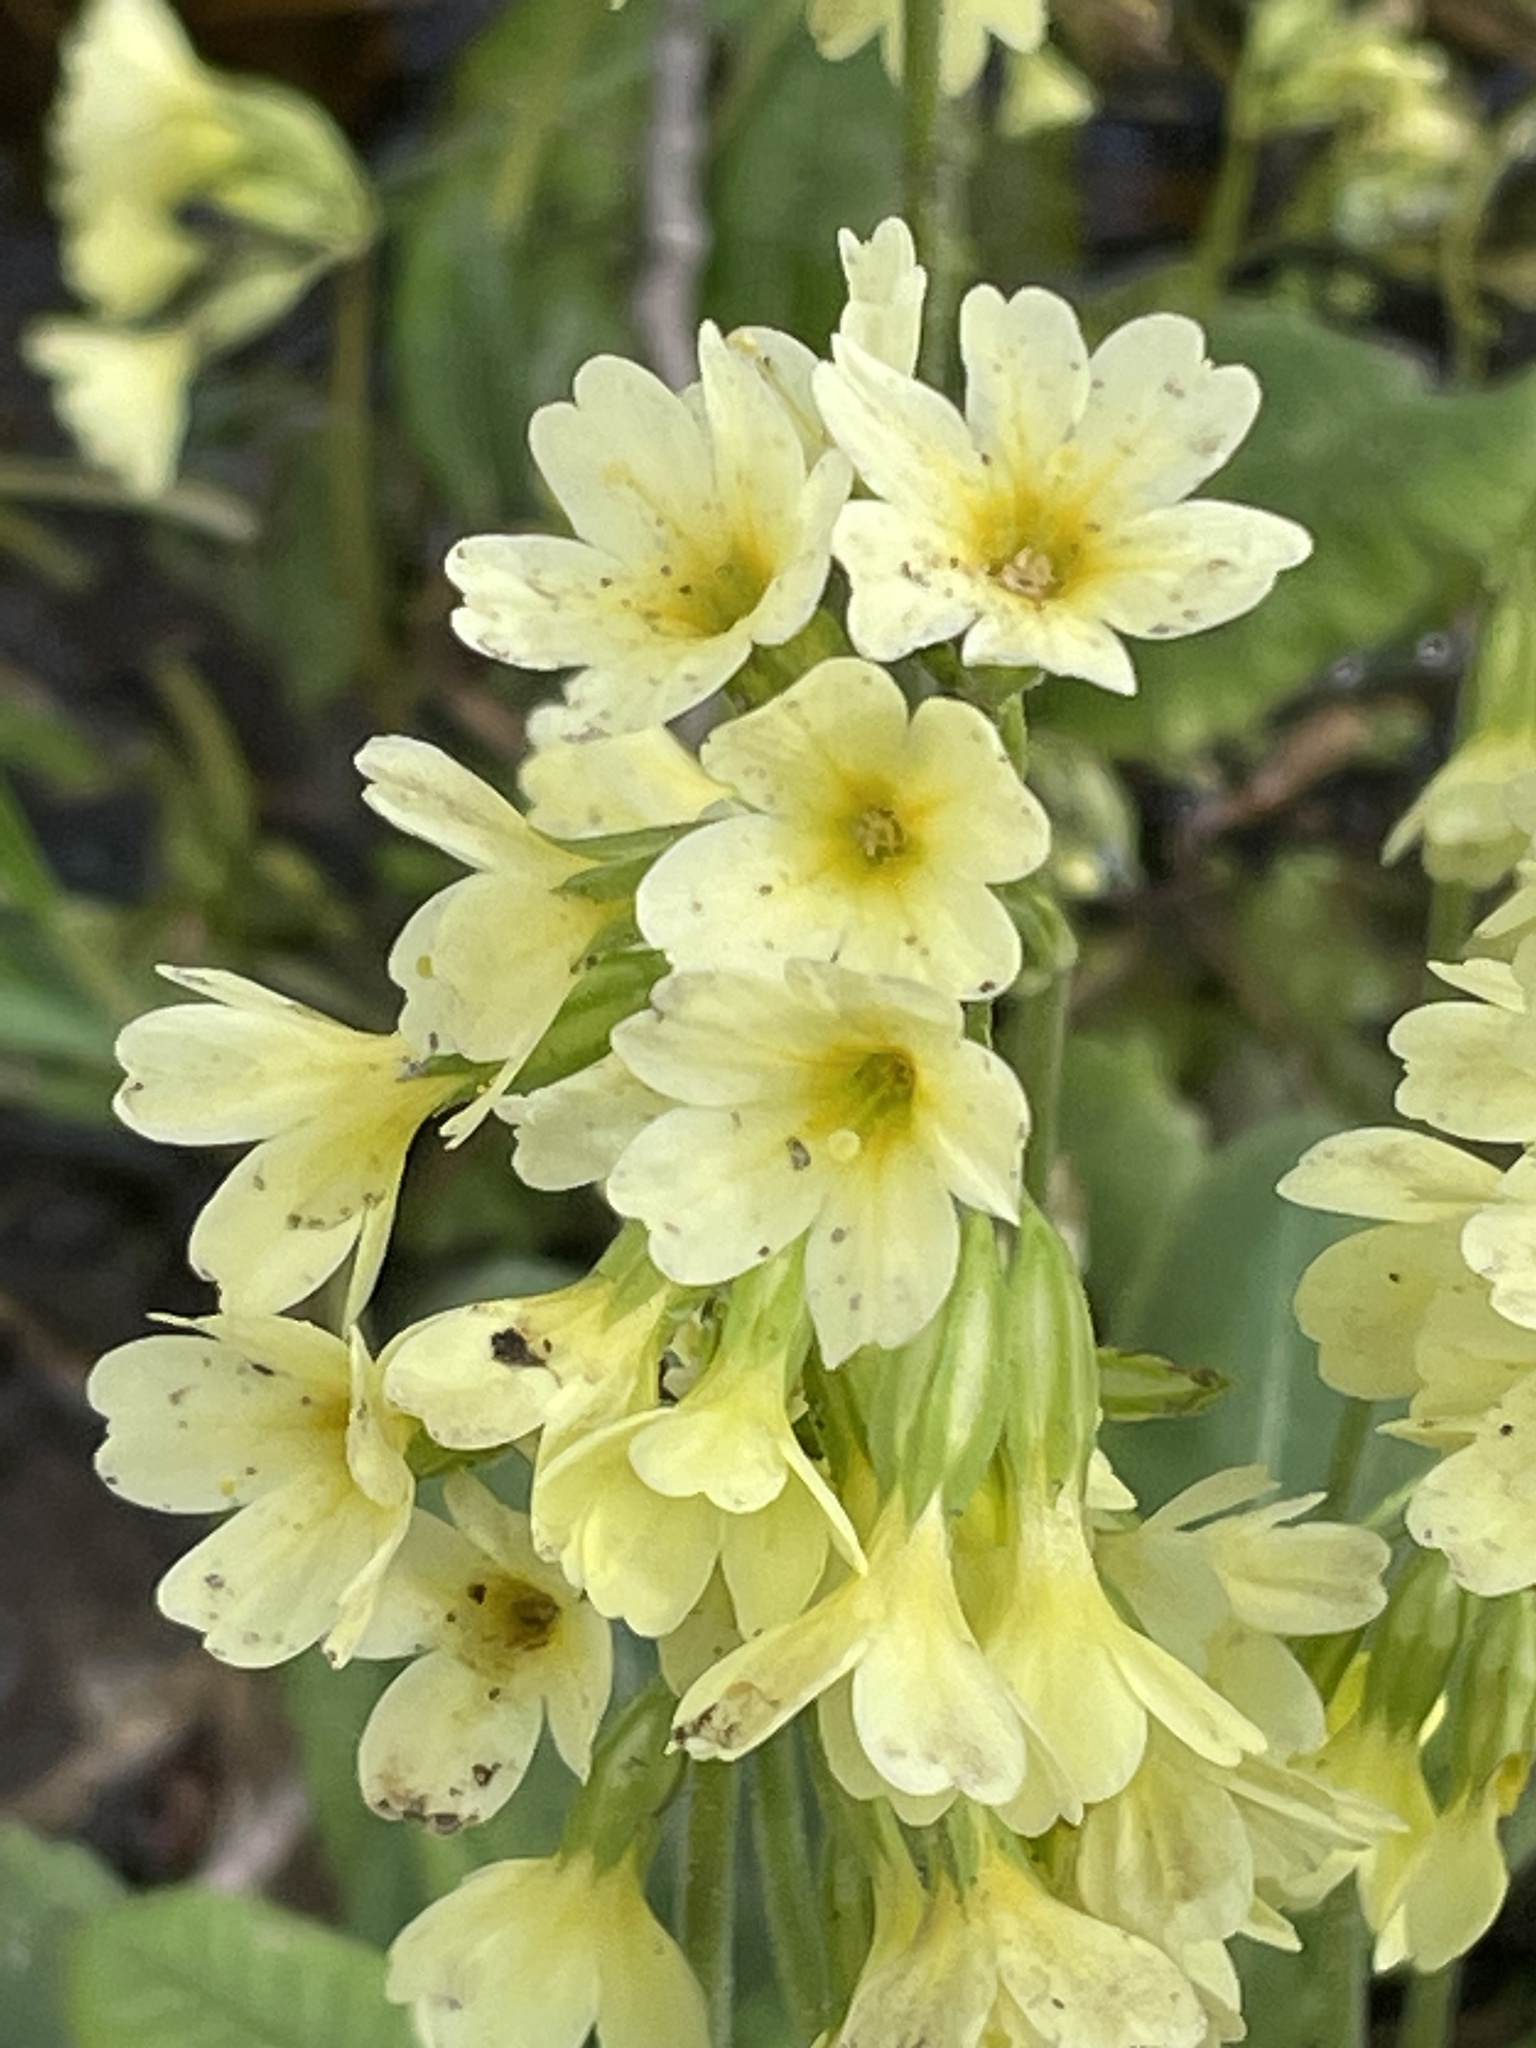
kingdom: Plantae
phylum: Tracheophyta
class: Magnoliopsida
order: Ericales
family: Primulaceae
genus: Primula
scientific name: Primula elatior
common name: Oxlip
